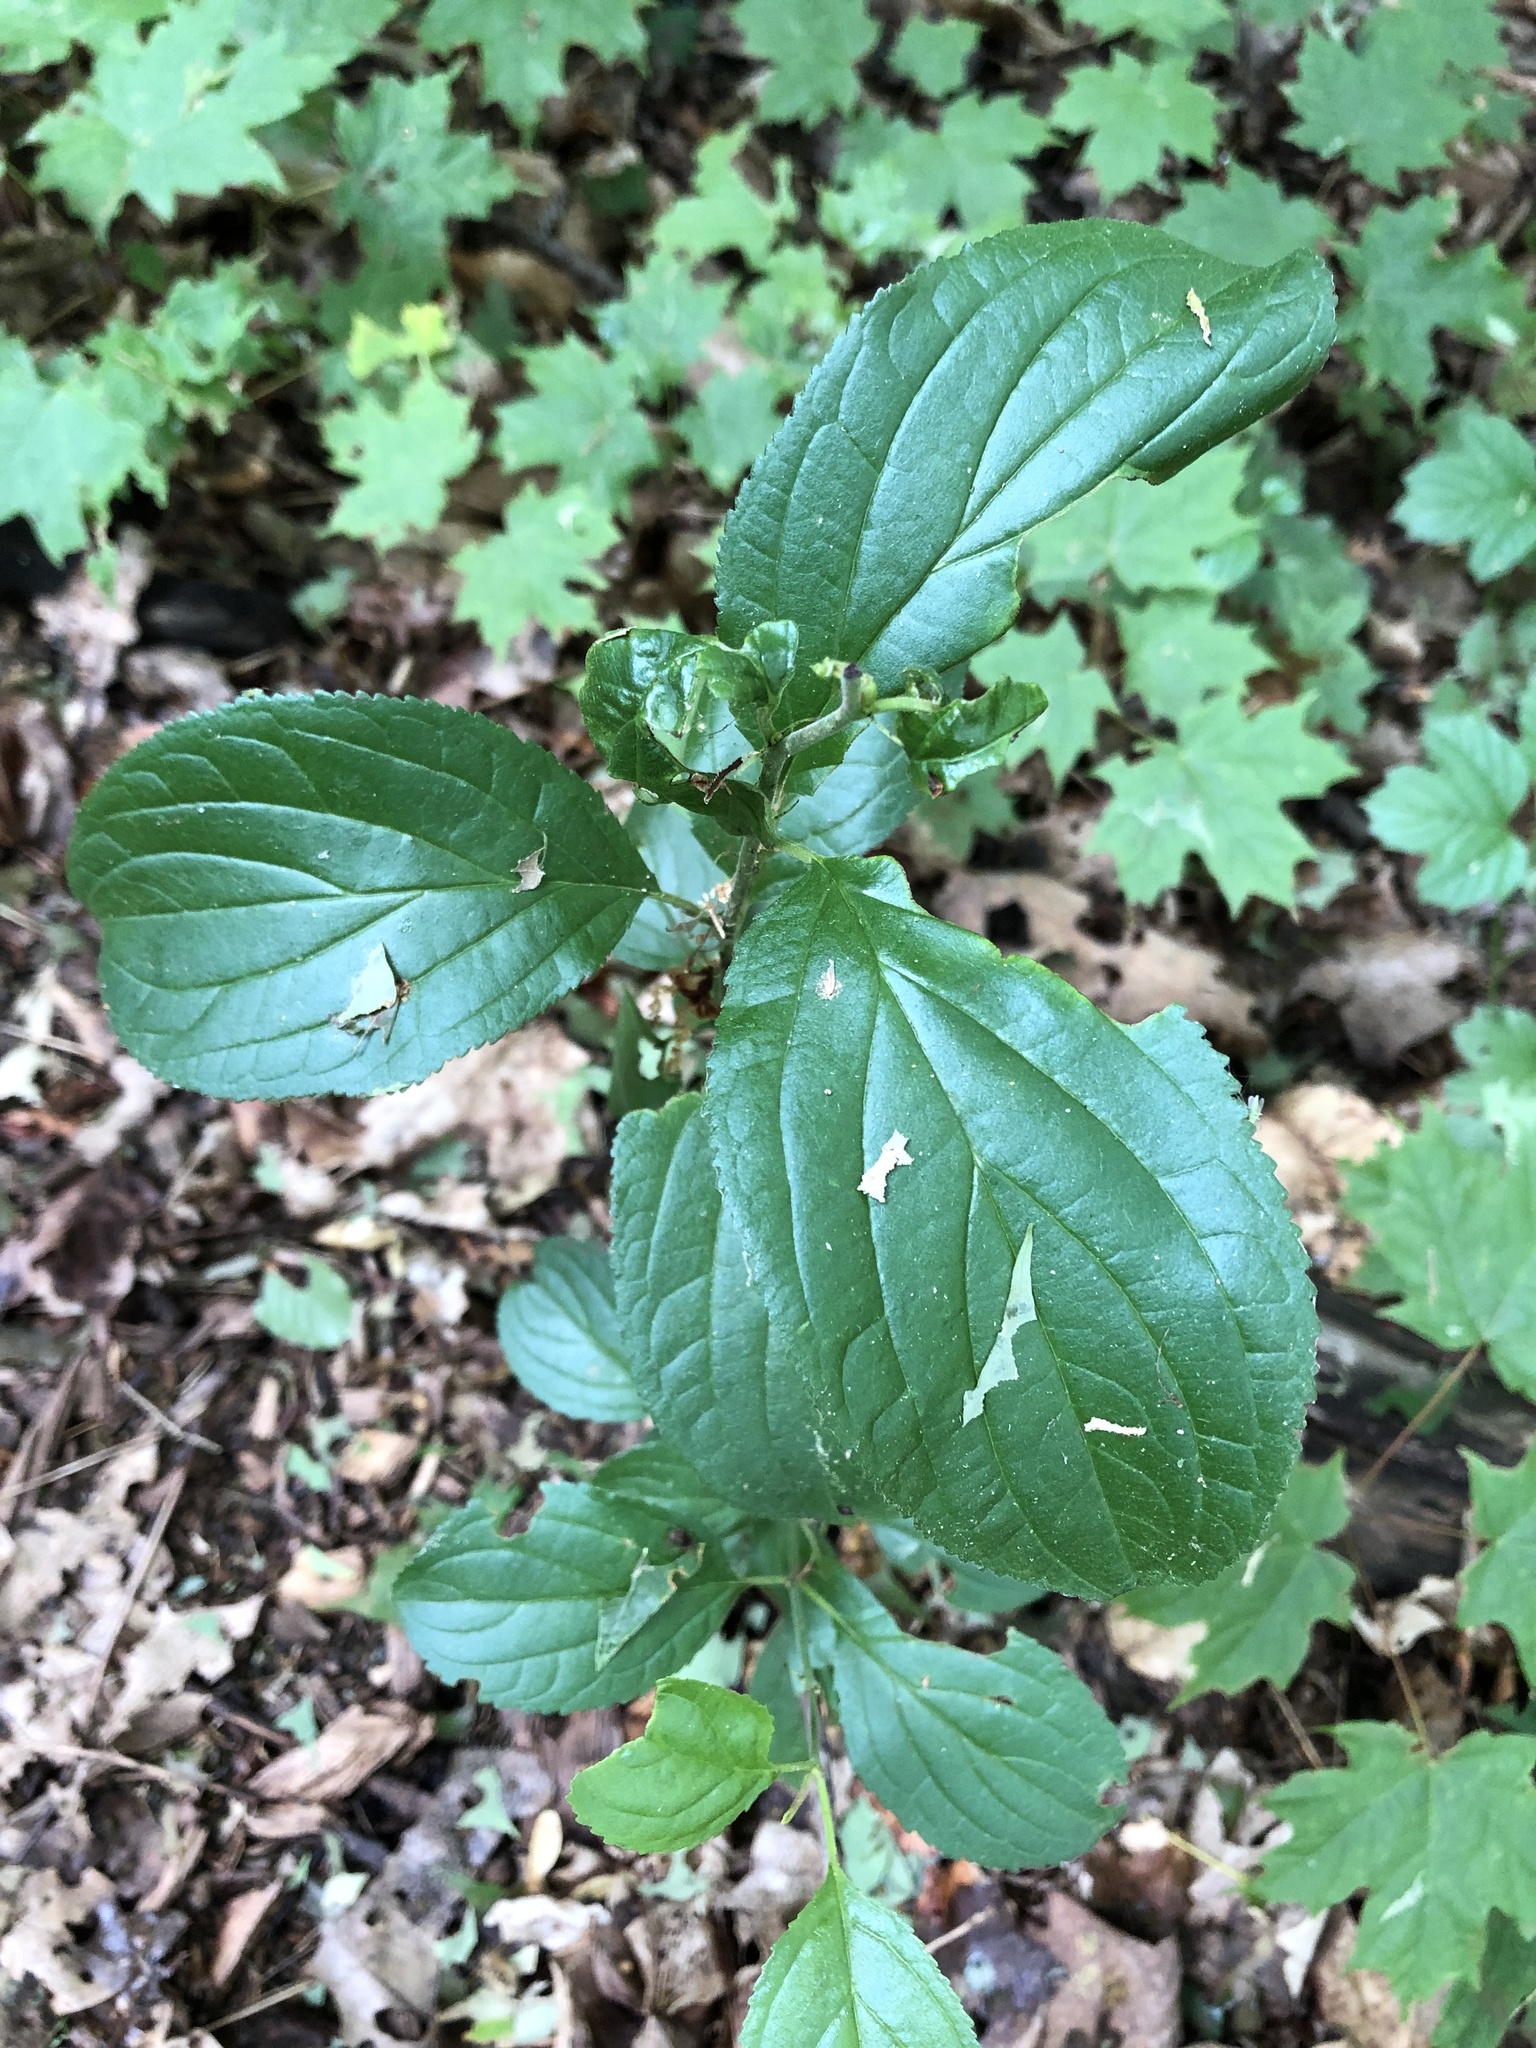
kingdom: Plantae
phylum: Tracheophyta
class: Magnoliopsida
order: Rosales
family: Rhamnaceae
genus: Rhamnus
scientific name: Rhamnus cathartica
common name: Common buckthorn
